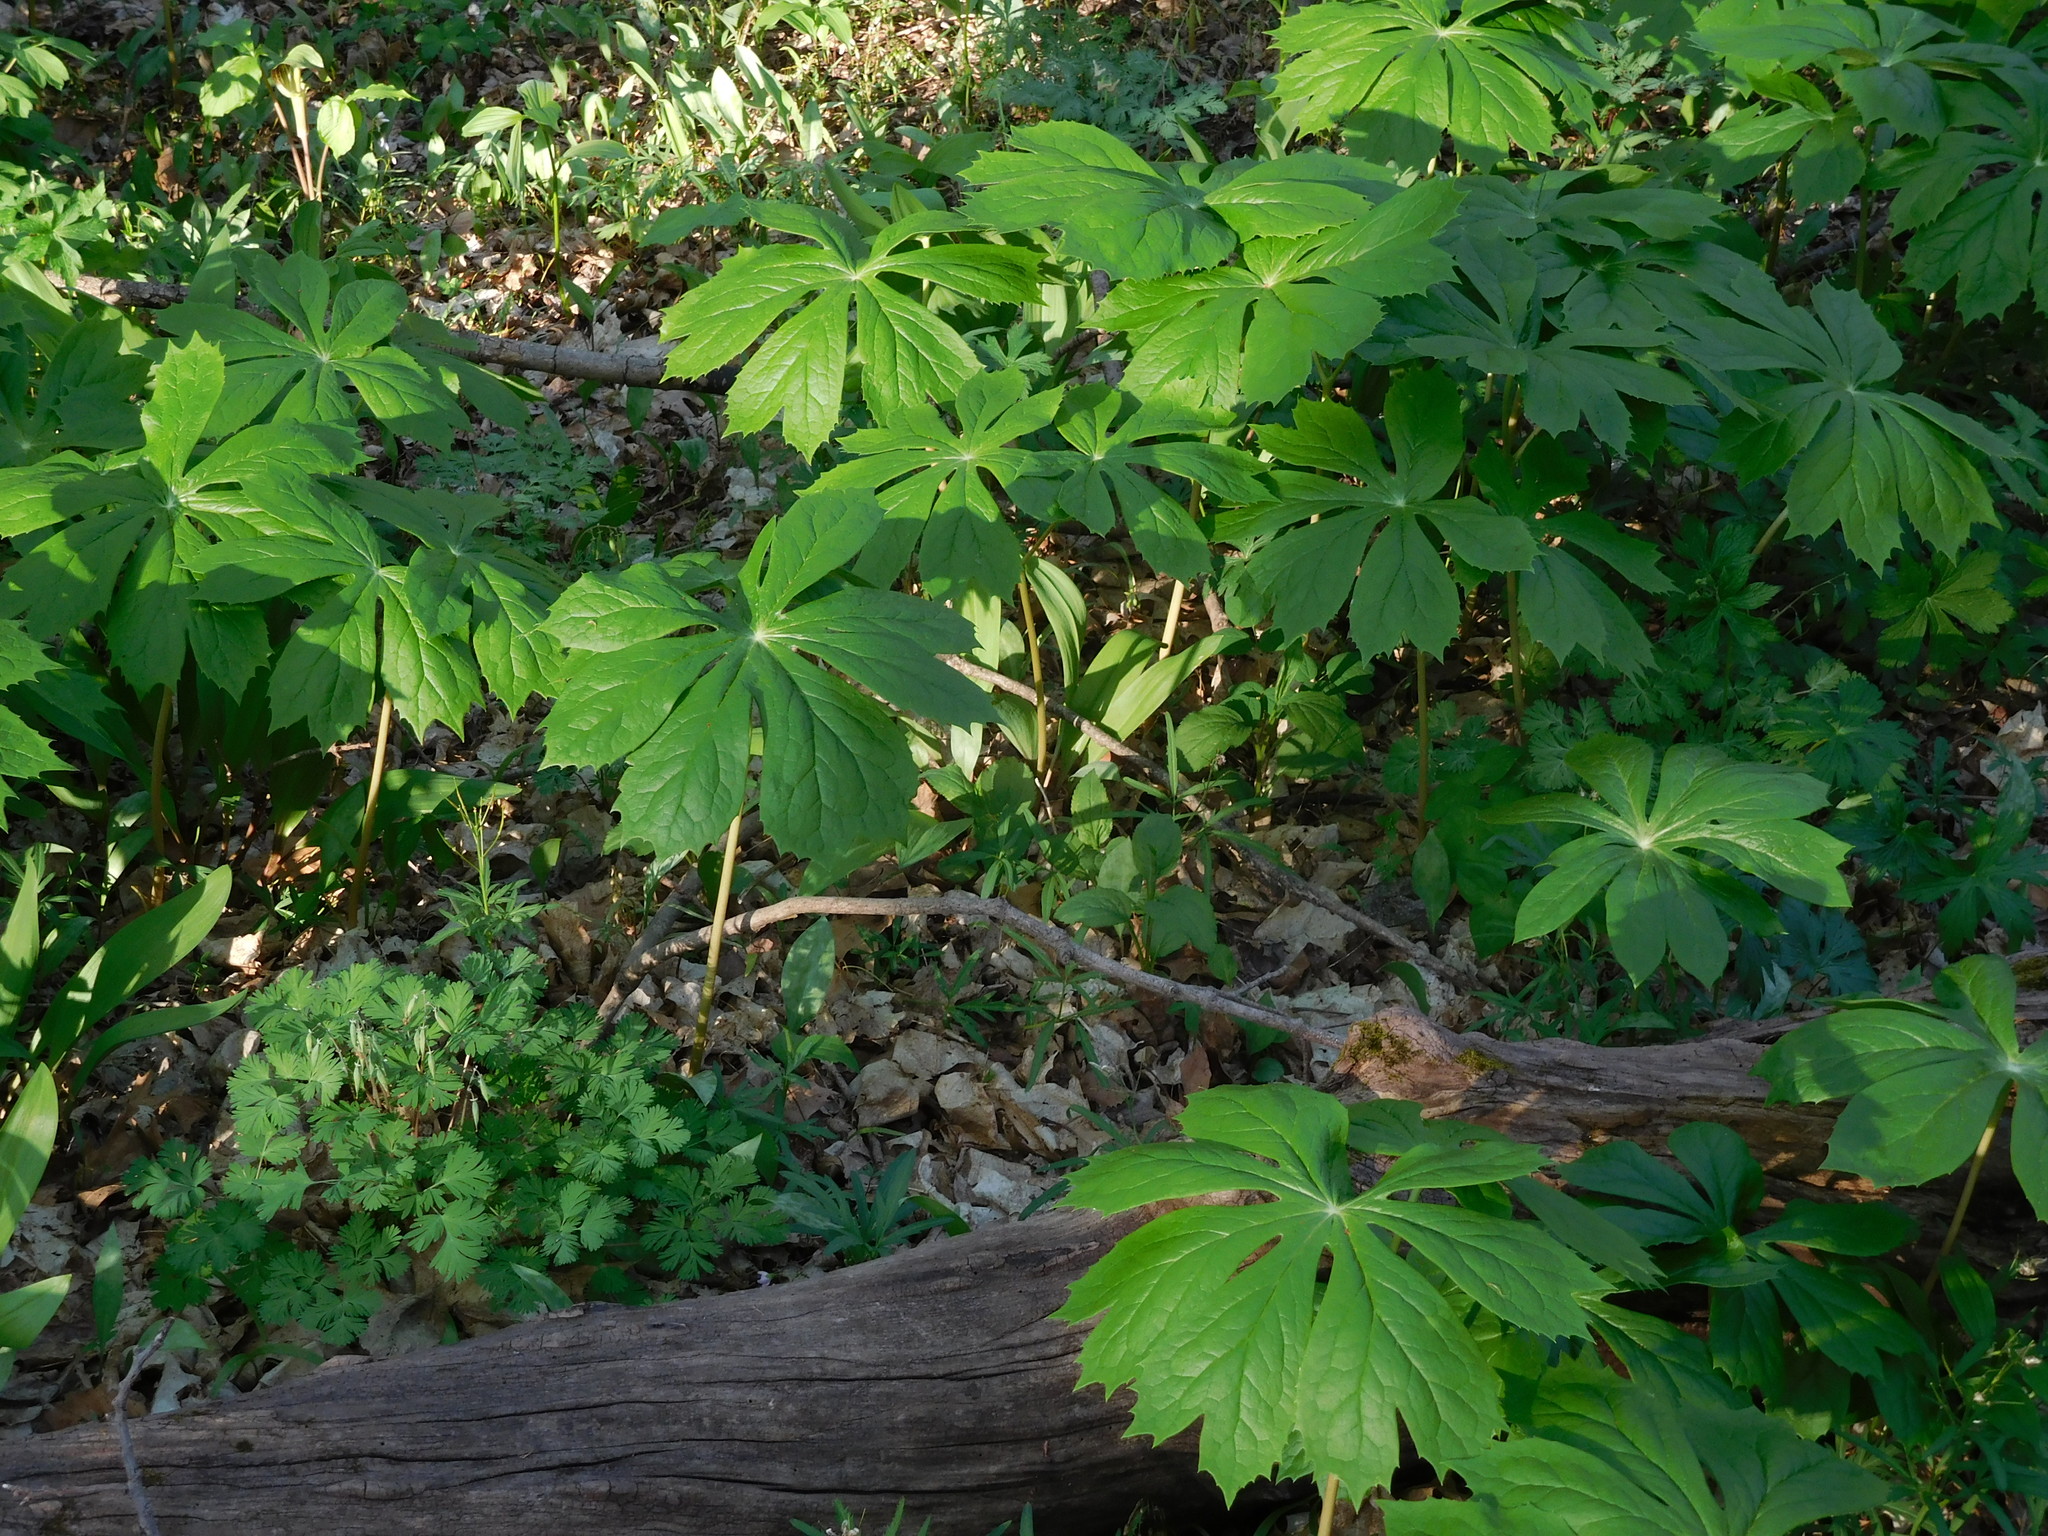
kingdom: Plantae
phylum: Tracheophyta
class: Magnoliopsida
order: Ranunculales
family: Berberidaceae
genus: Podophyllum
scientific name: Podophyllum peltatum
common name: Wild mandrake
